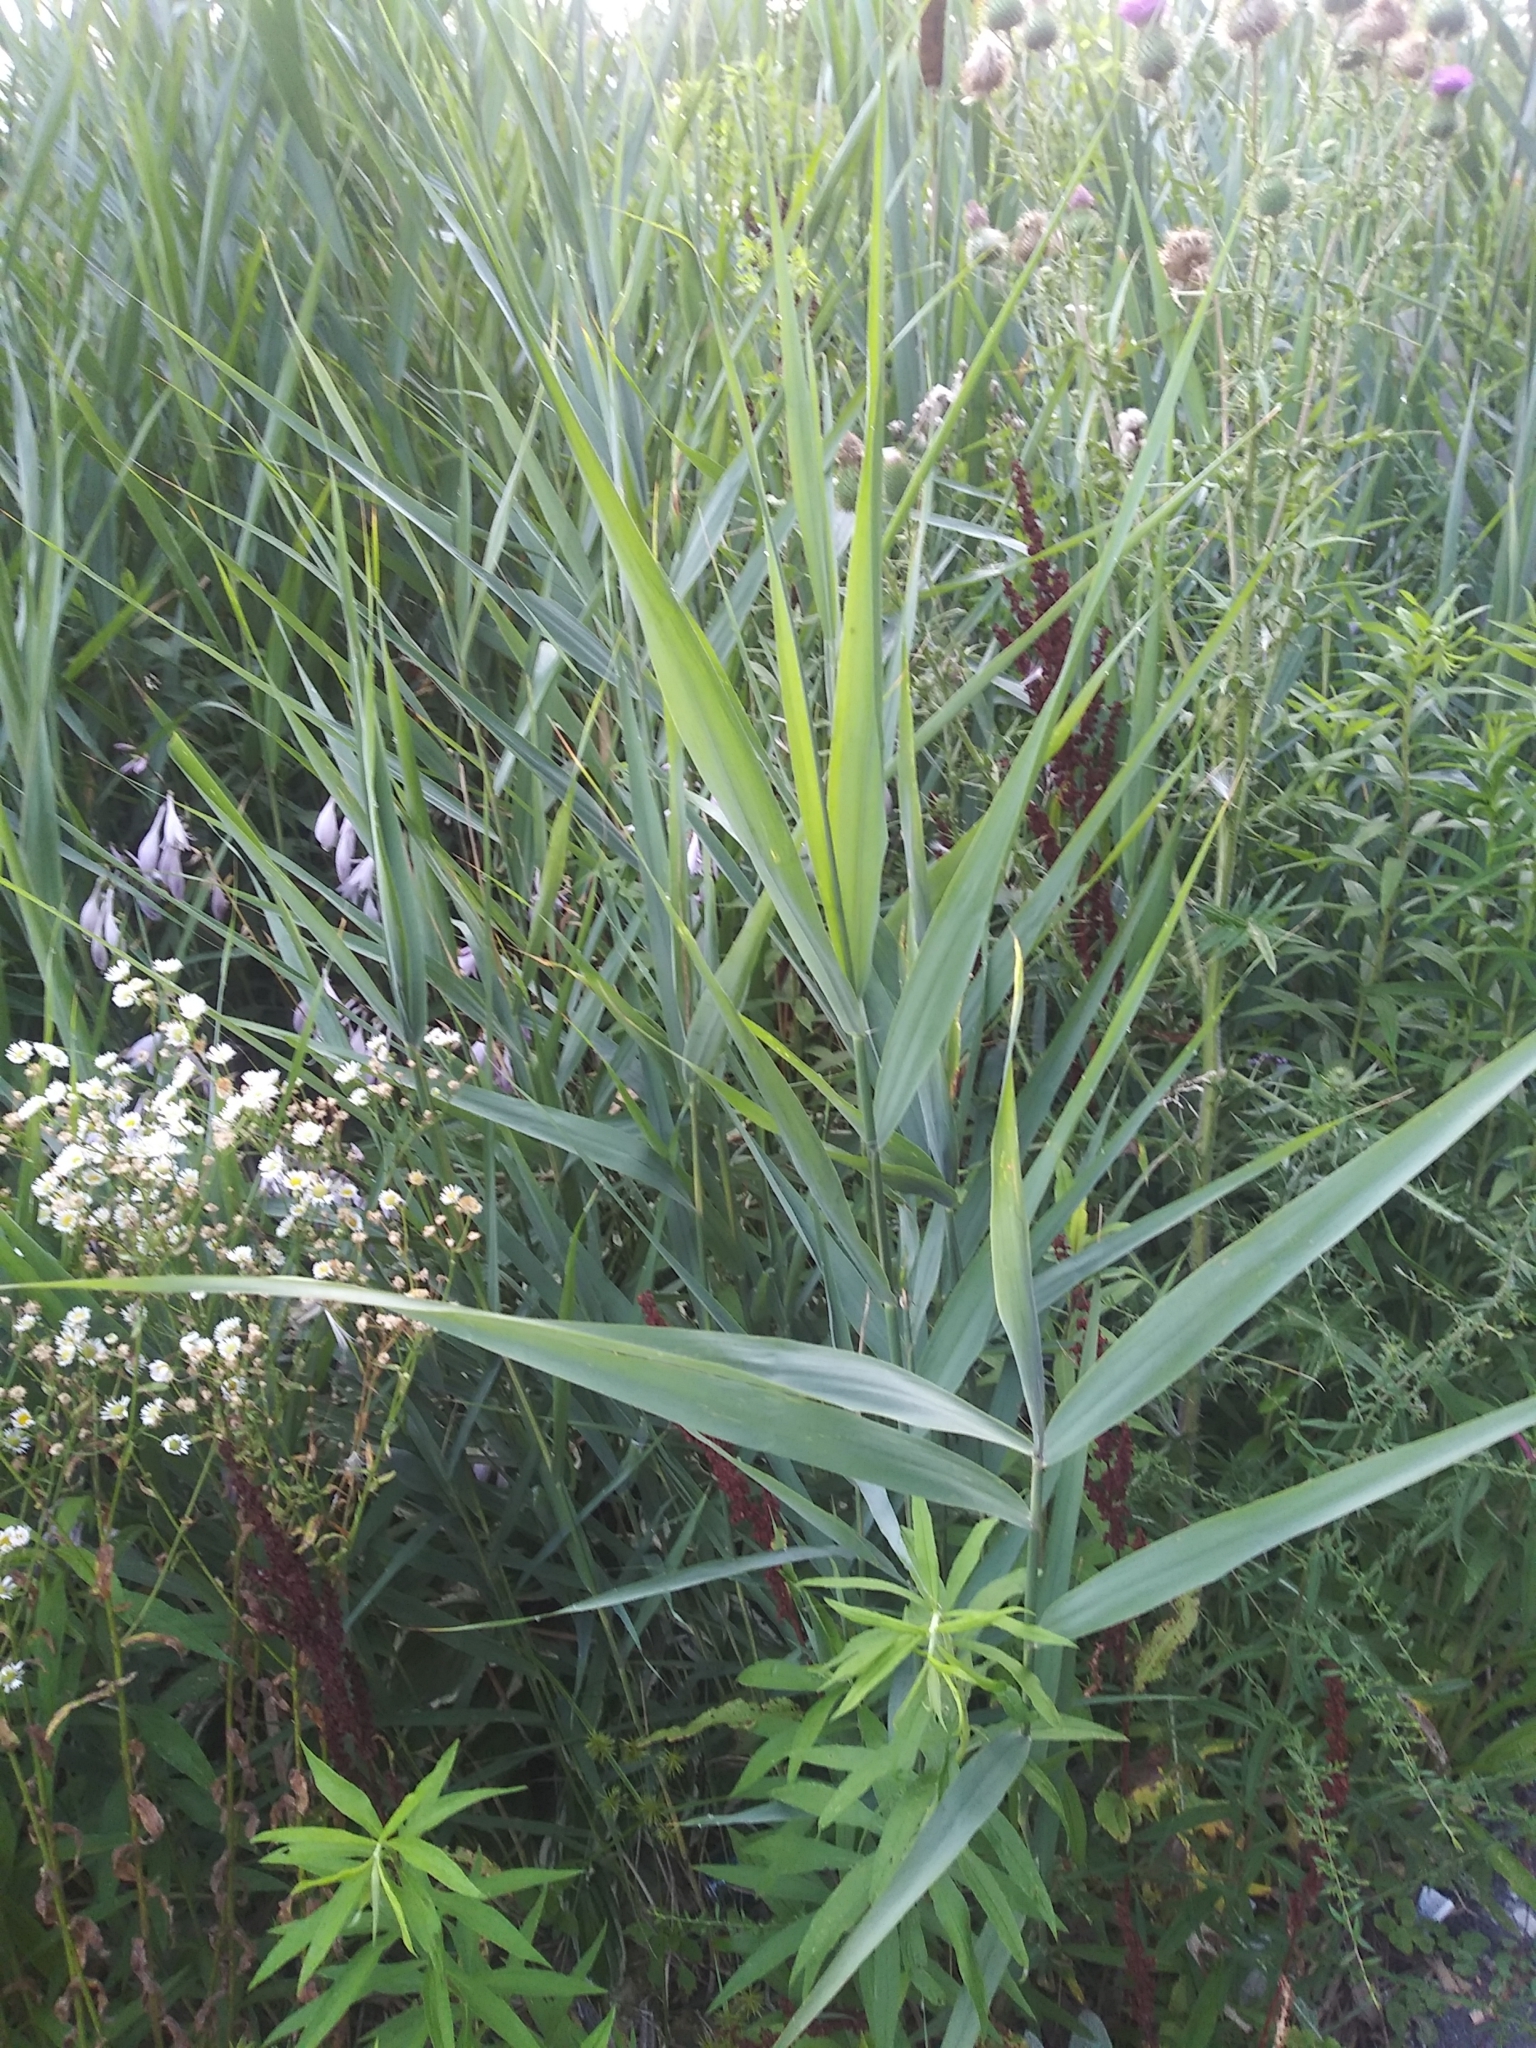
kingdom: Plantae
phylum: Tracheophyta
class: Liliopsida
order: Poales
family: Poaceae
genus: Phragmites
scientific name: Phragmites australis
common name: Common reed
